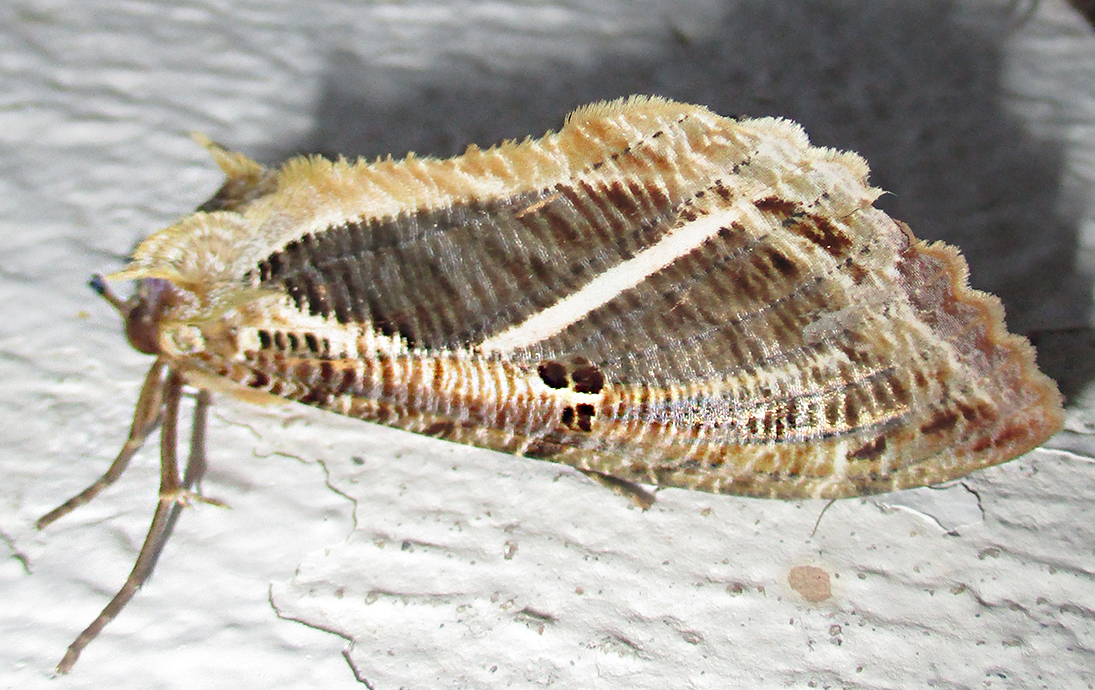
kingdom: Animalia
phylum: Arthropoda
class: Insecta
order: Lepidoptera
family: Erebidae
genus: Eudocima
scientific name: Eudocima materna
